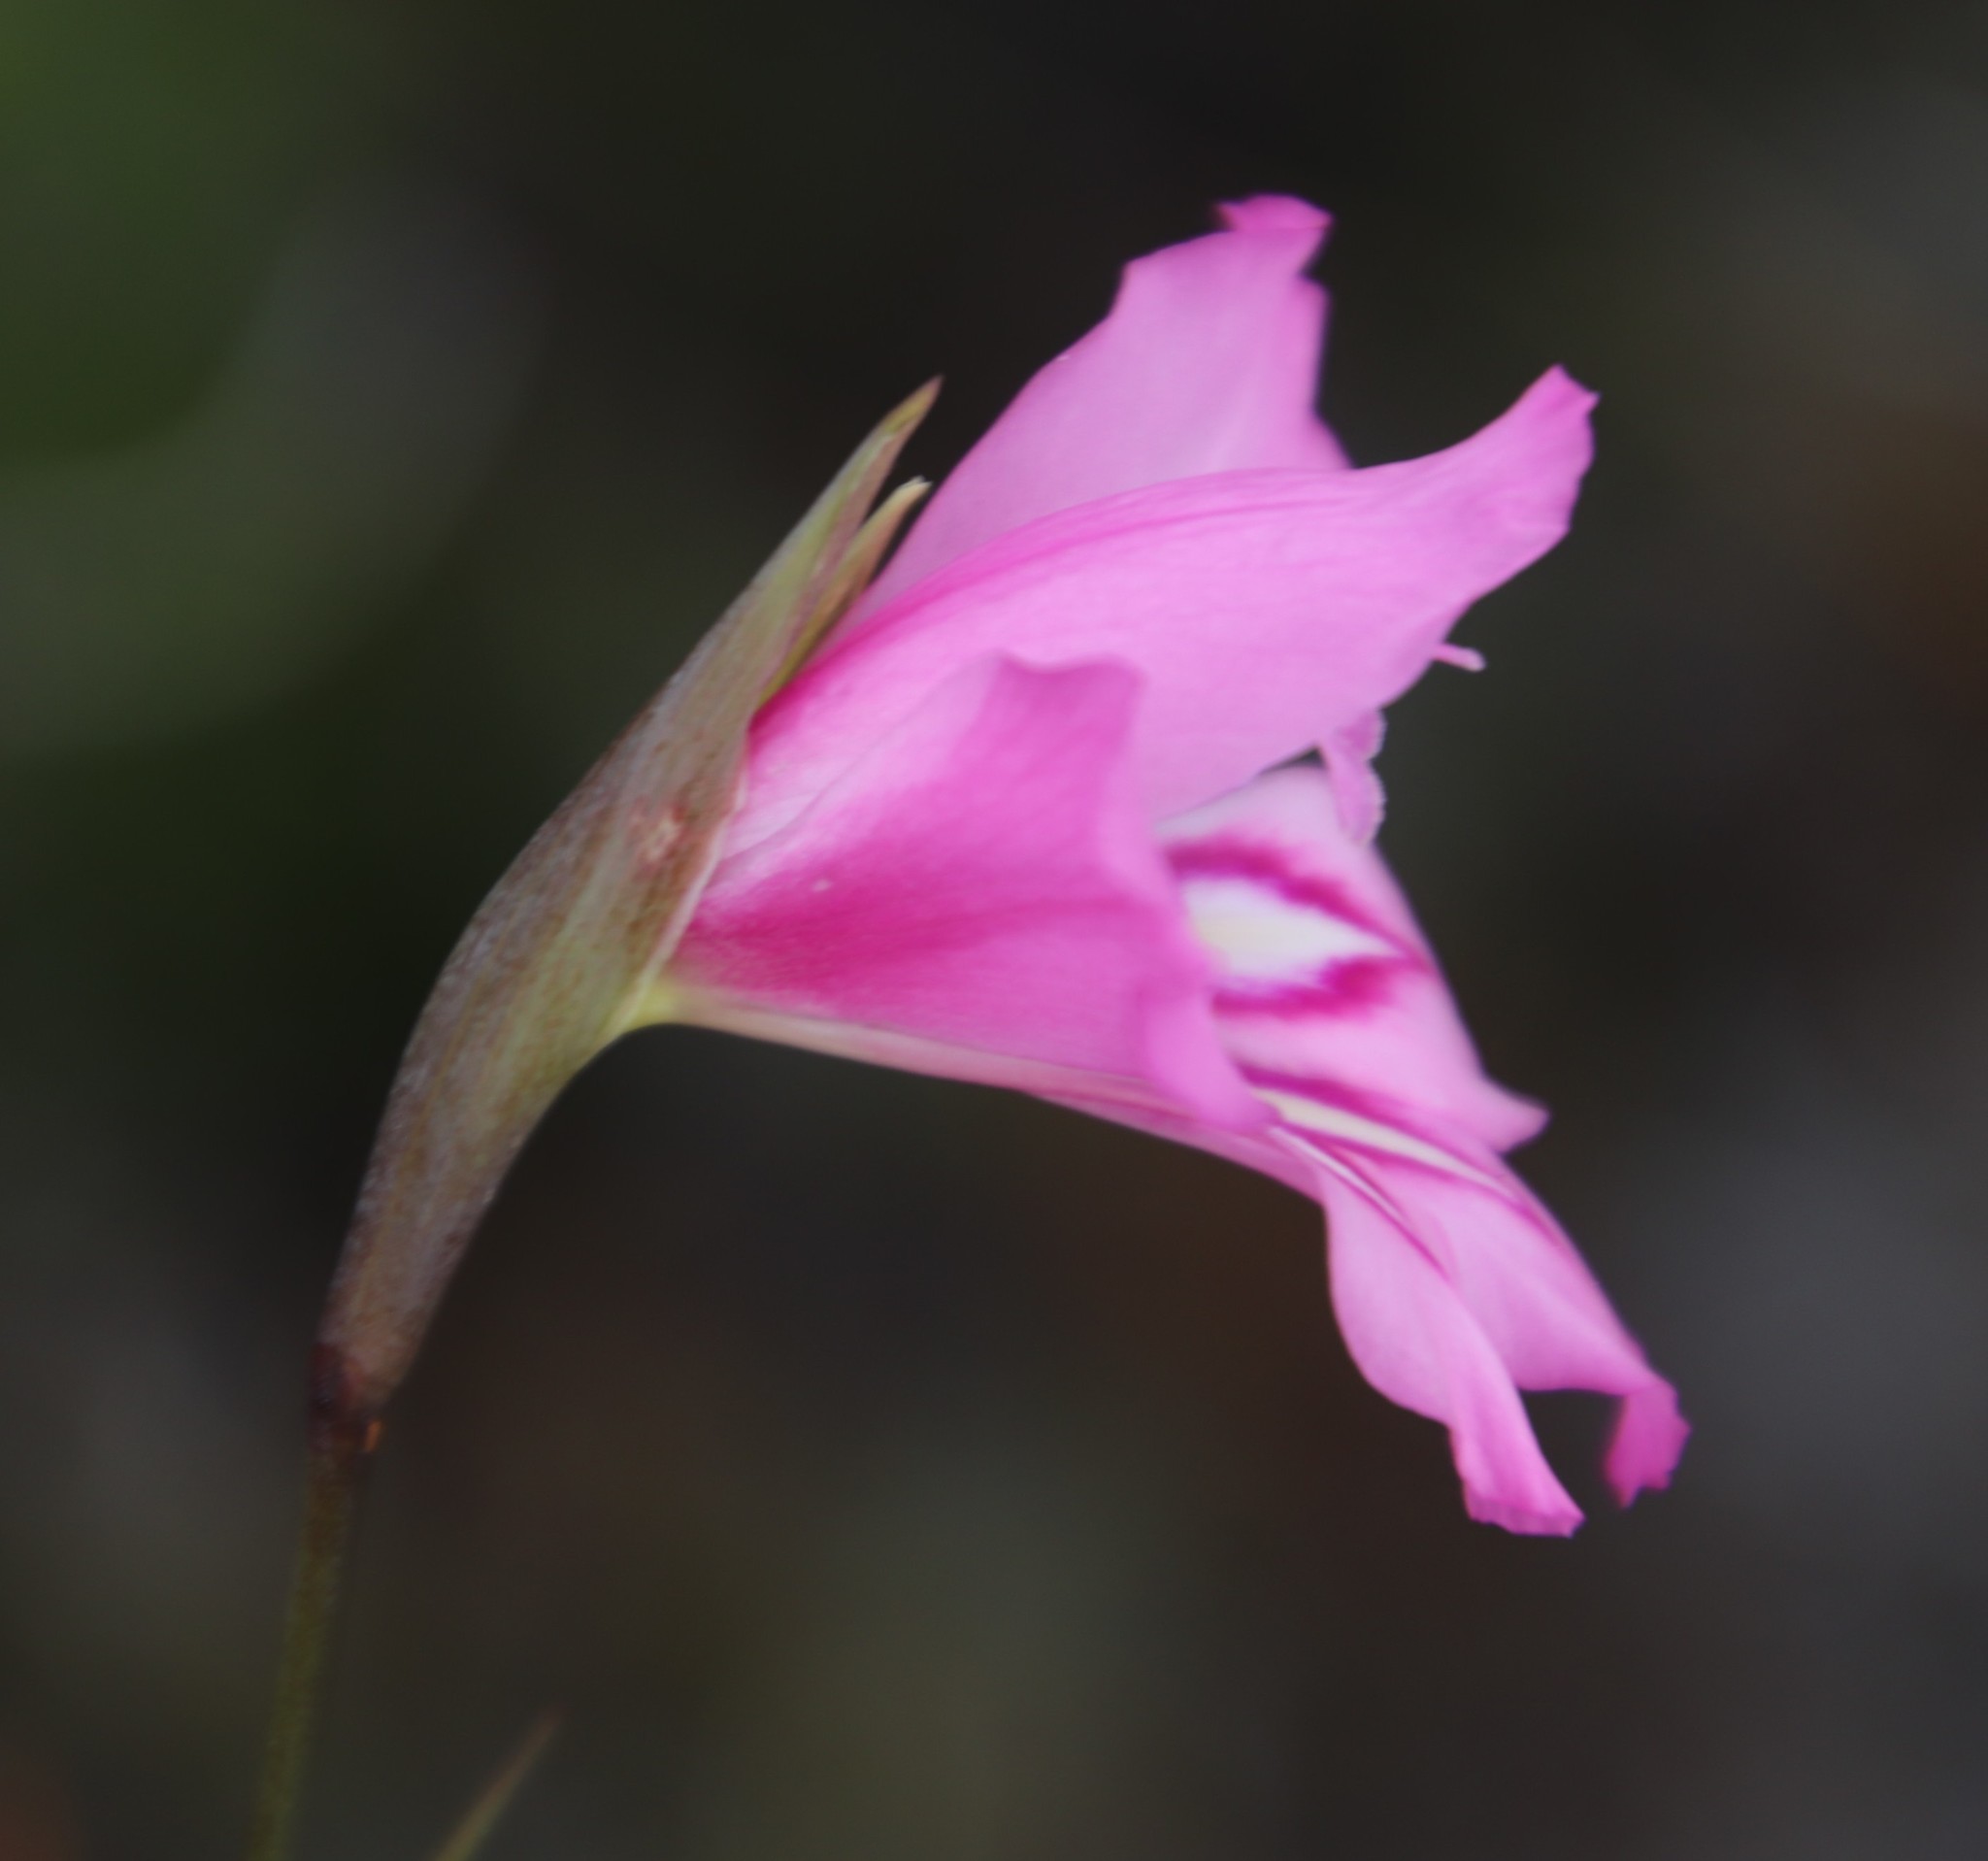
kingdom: Plantae
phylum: Tracheophyta
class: Liliopsida
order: Asparagales
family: Iridaceae
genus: Gladiolus
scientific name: Gladiolus ornatus
